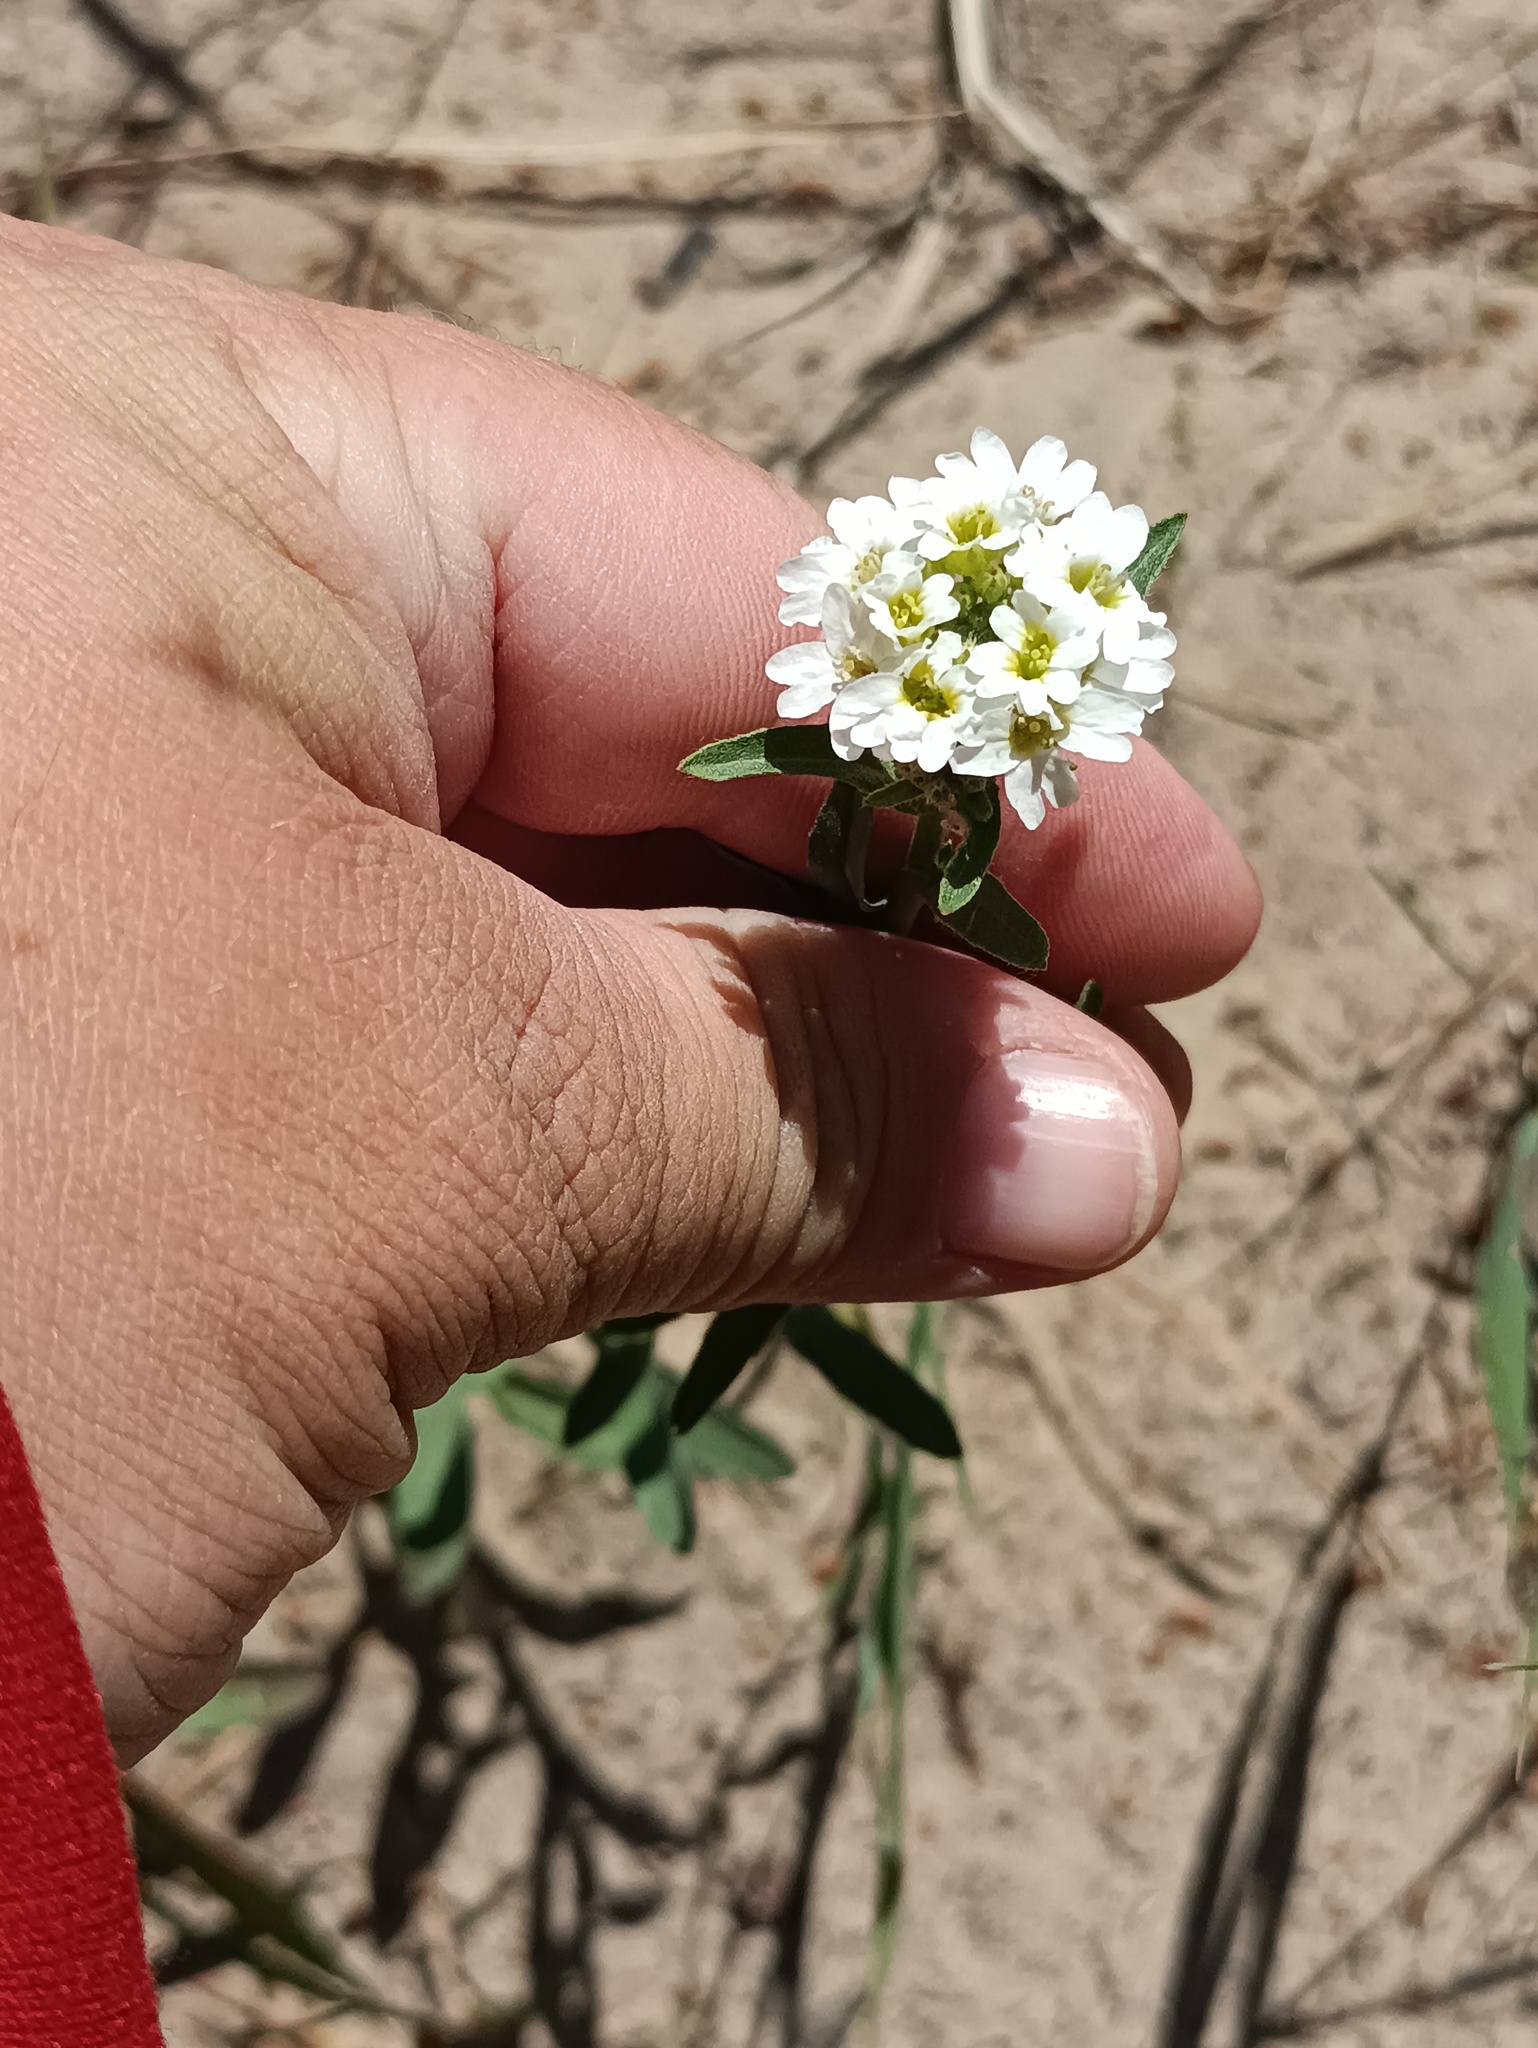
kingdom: Plantae
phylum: Tracheophyta
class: Magnoliopsida
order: Brassicales
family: Brassicaceae
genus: Berteroa
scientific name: Berteroa incana
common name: Hoary alison
